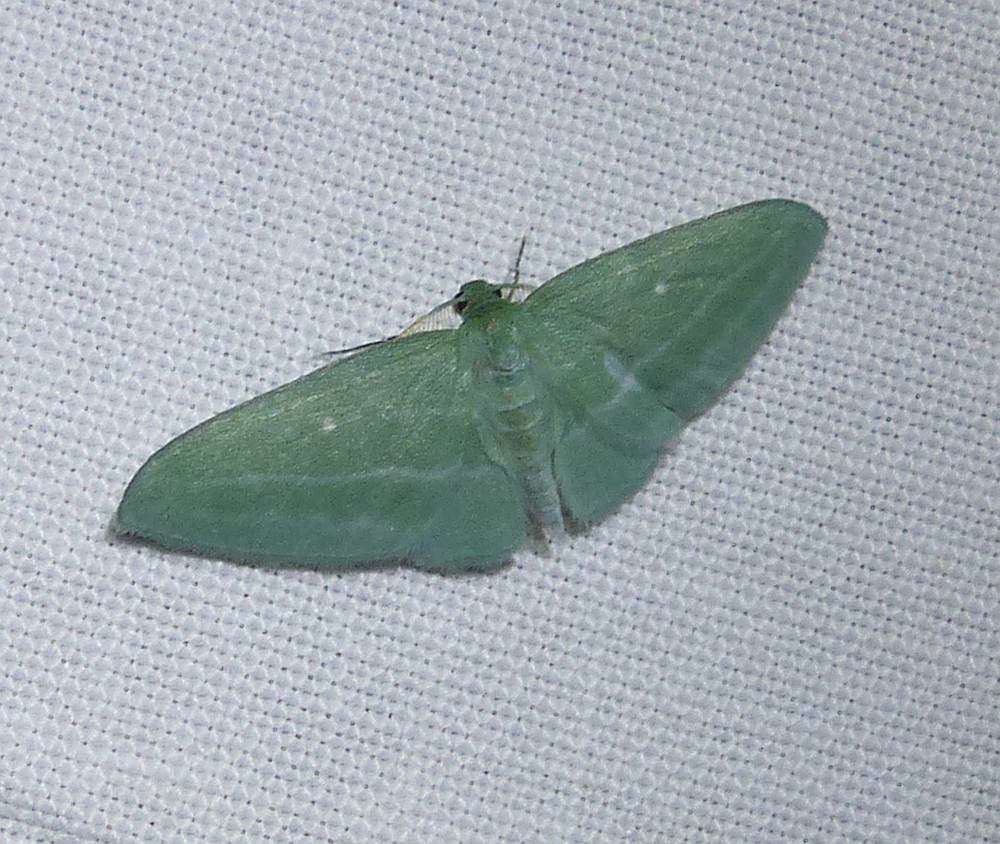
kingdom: Animalia
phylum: Arthropoda
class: Insecta
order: Lepidoptera
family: Geometridae
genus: Dyspteris
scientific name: Dyspteris abortivaria
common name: Bad-wing
